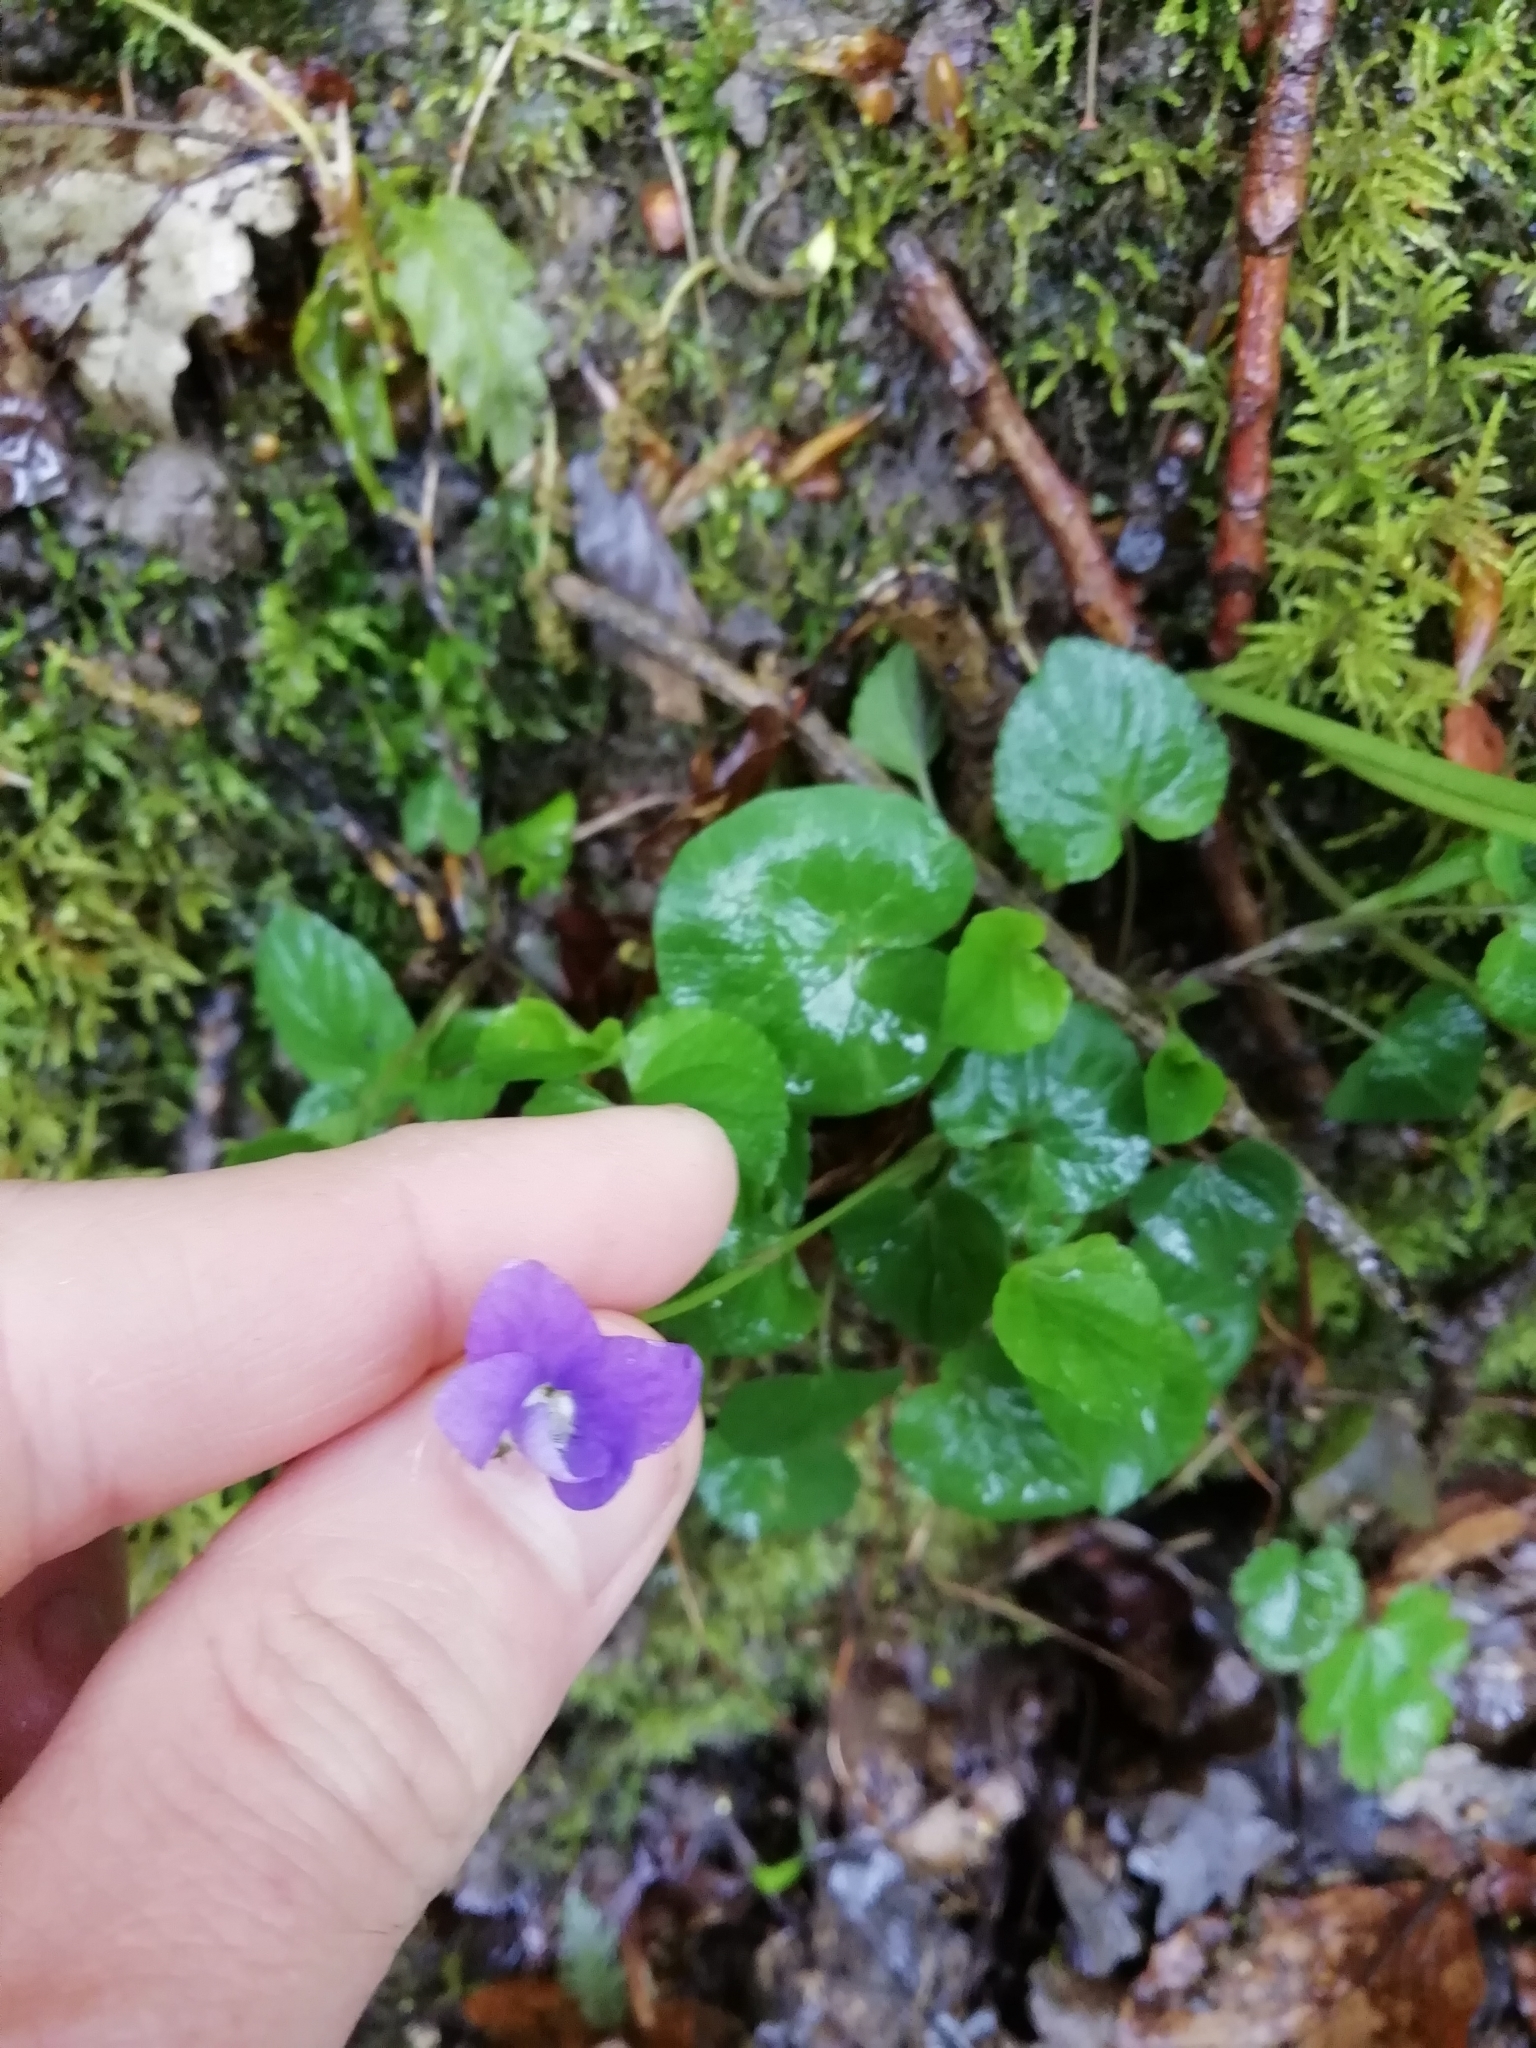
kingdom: Plantae
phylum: Tracheophyta
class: Magnoliopsida
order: Malpighiales
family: Violaceae
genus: Viola
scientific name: Viola riviniana
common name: Common dog-violet
